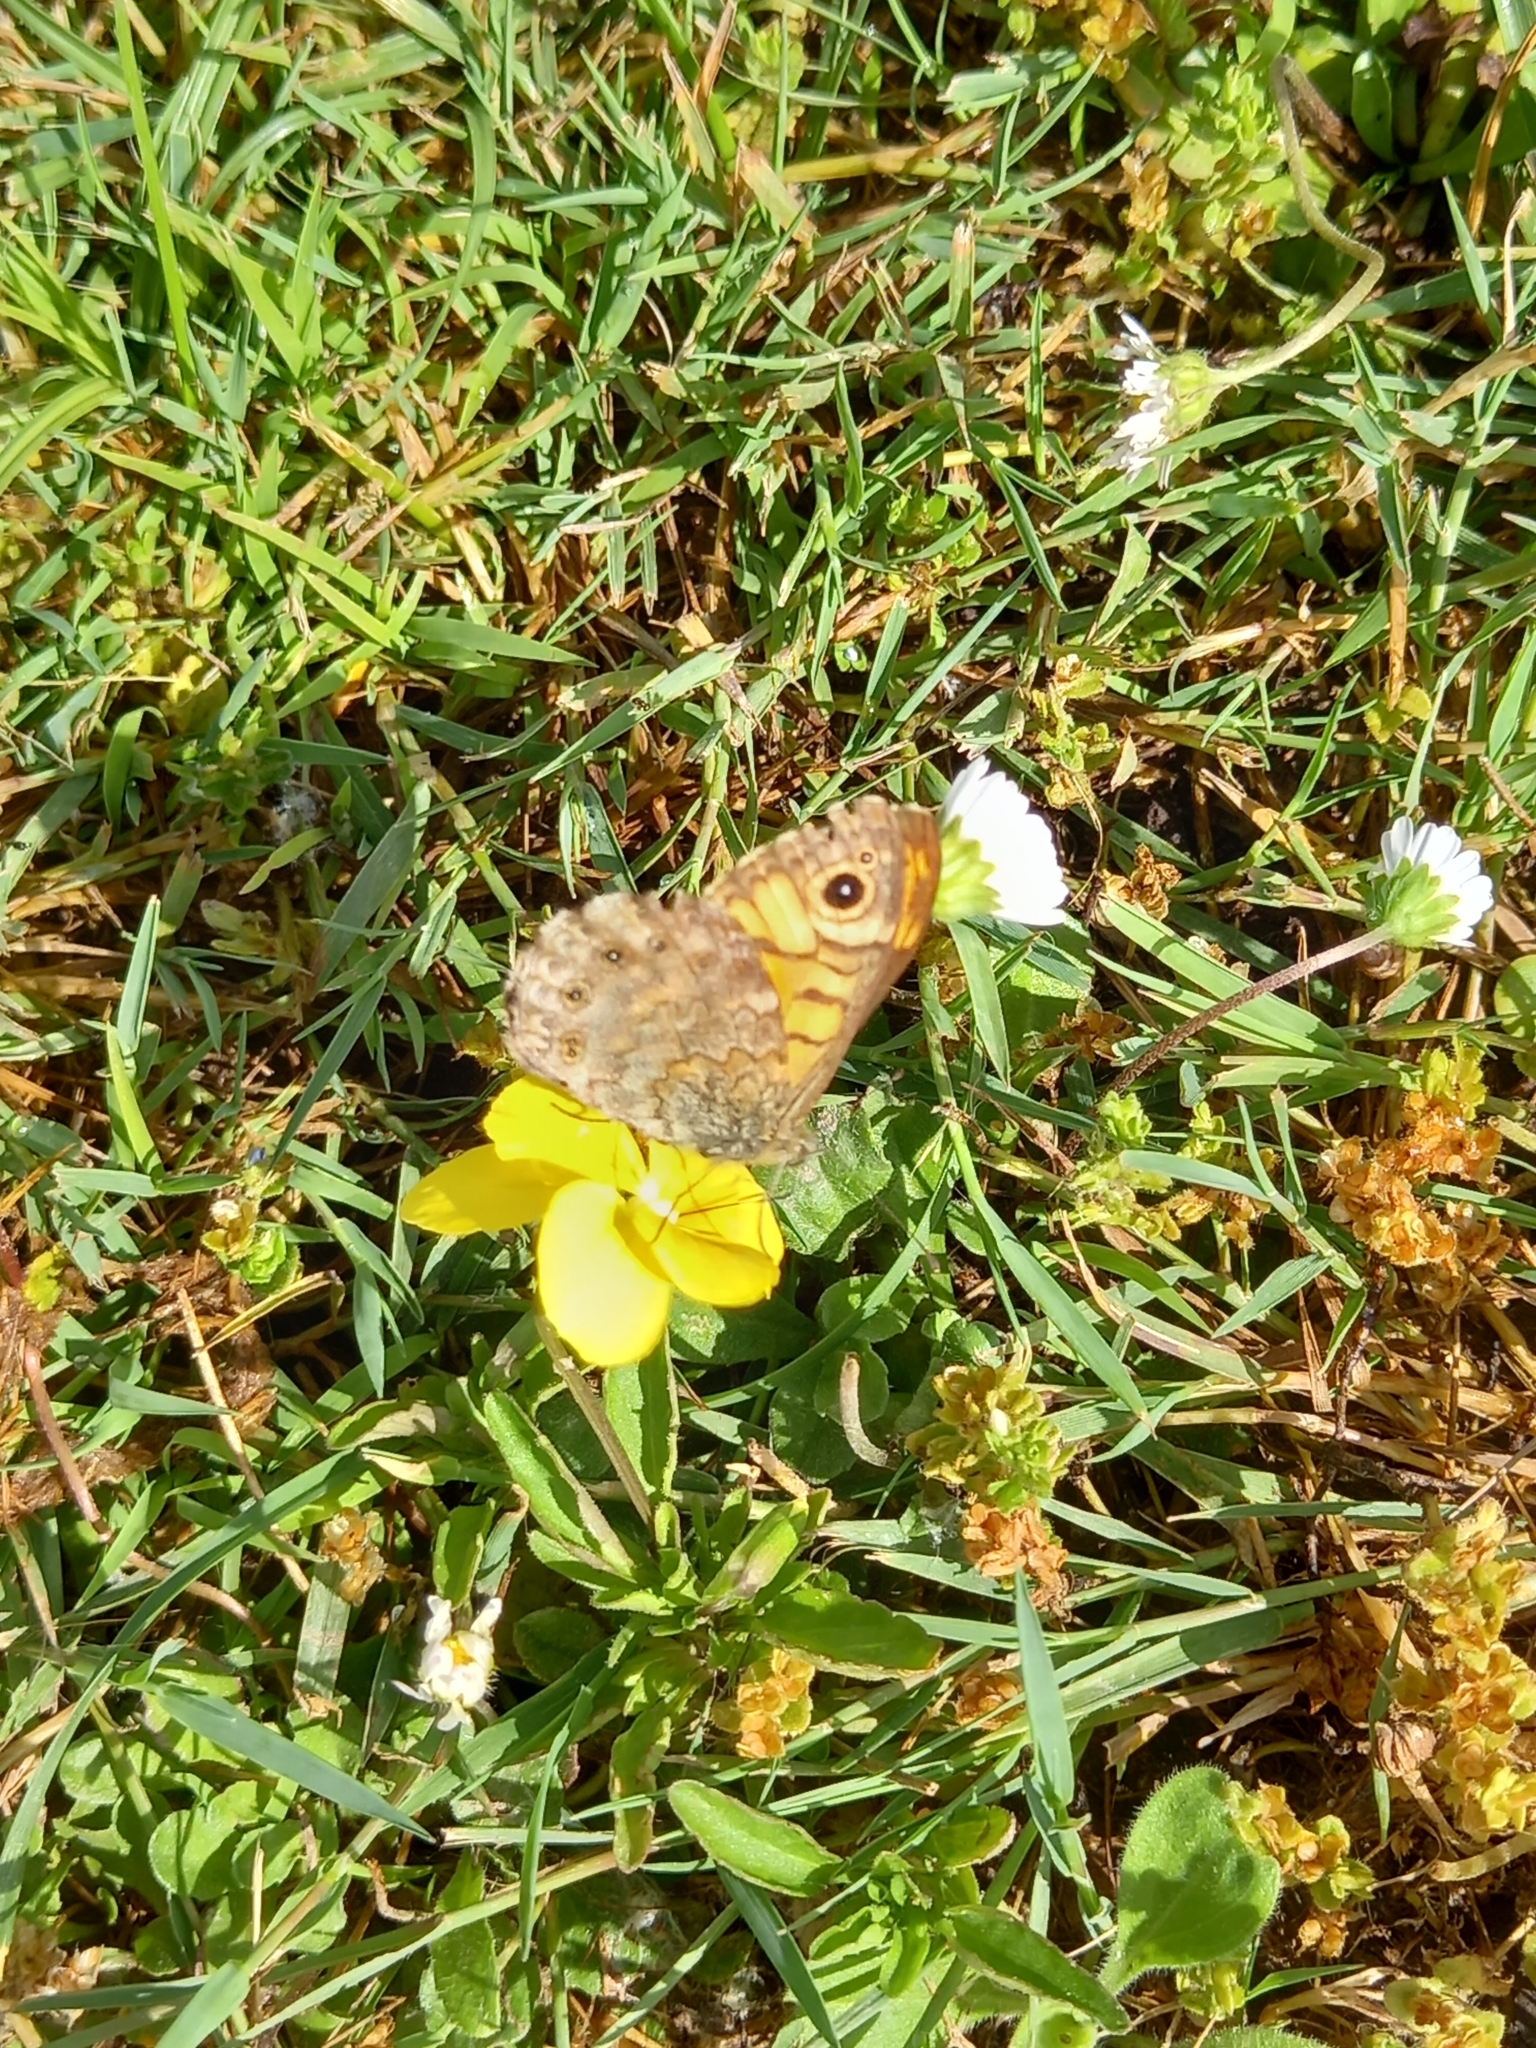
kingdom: Animalia
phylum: Arthropoda
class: Insecta
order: Lepidoptera
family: Nymphalidae
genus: Pararge
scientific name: Pararge Lasiommata megera
